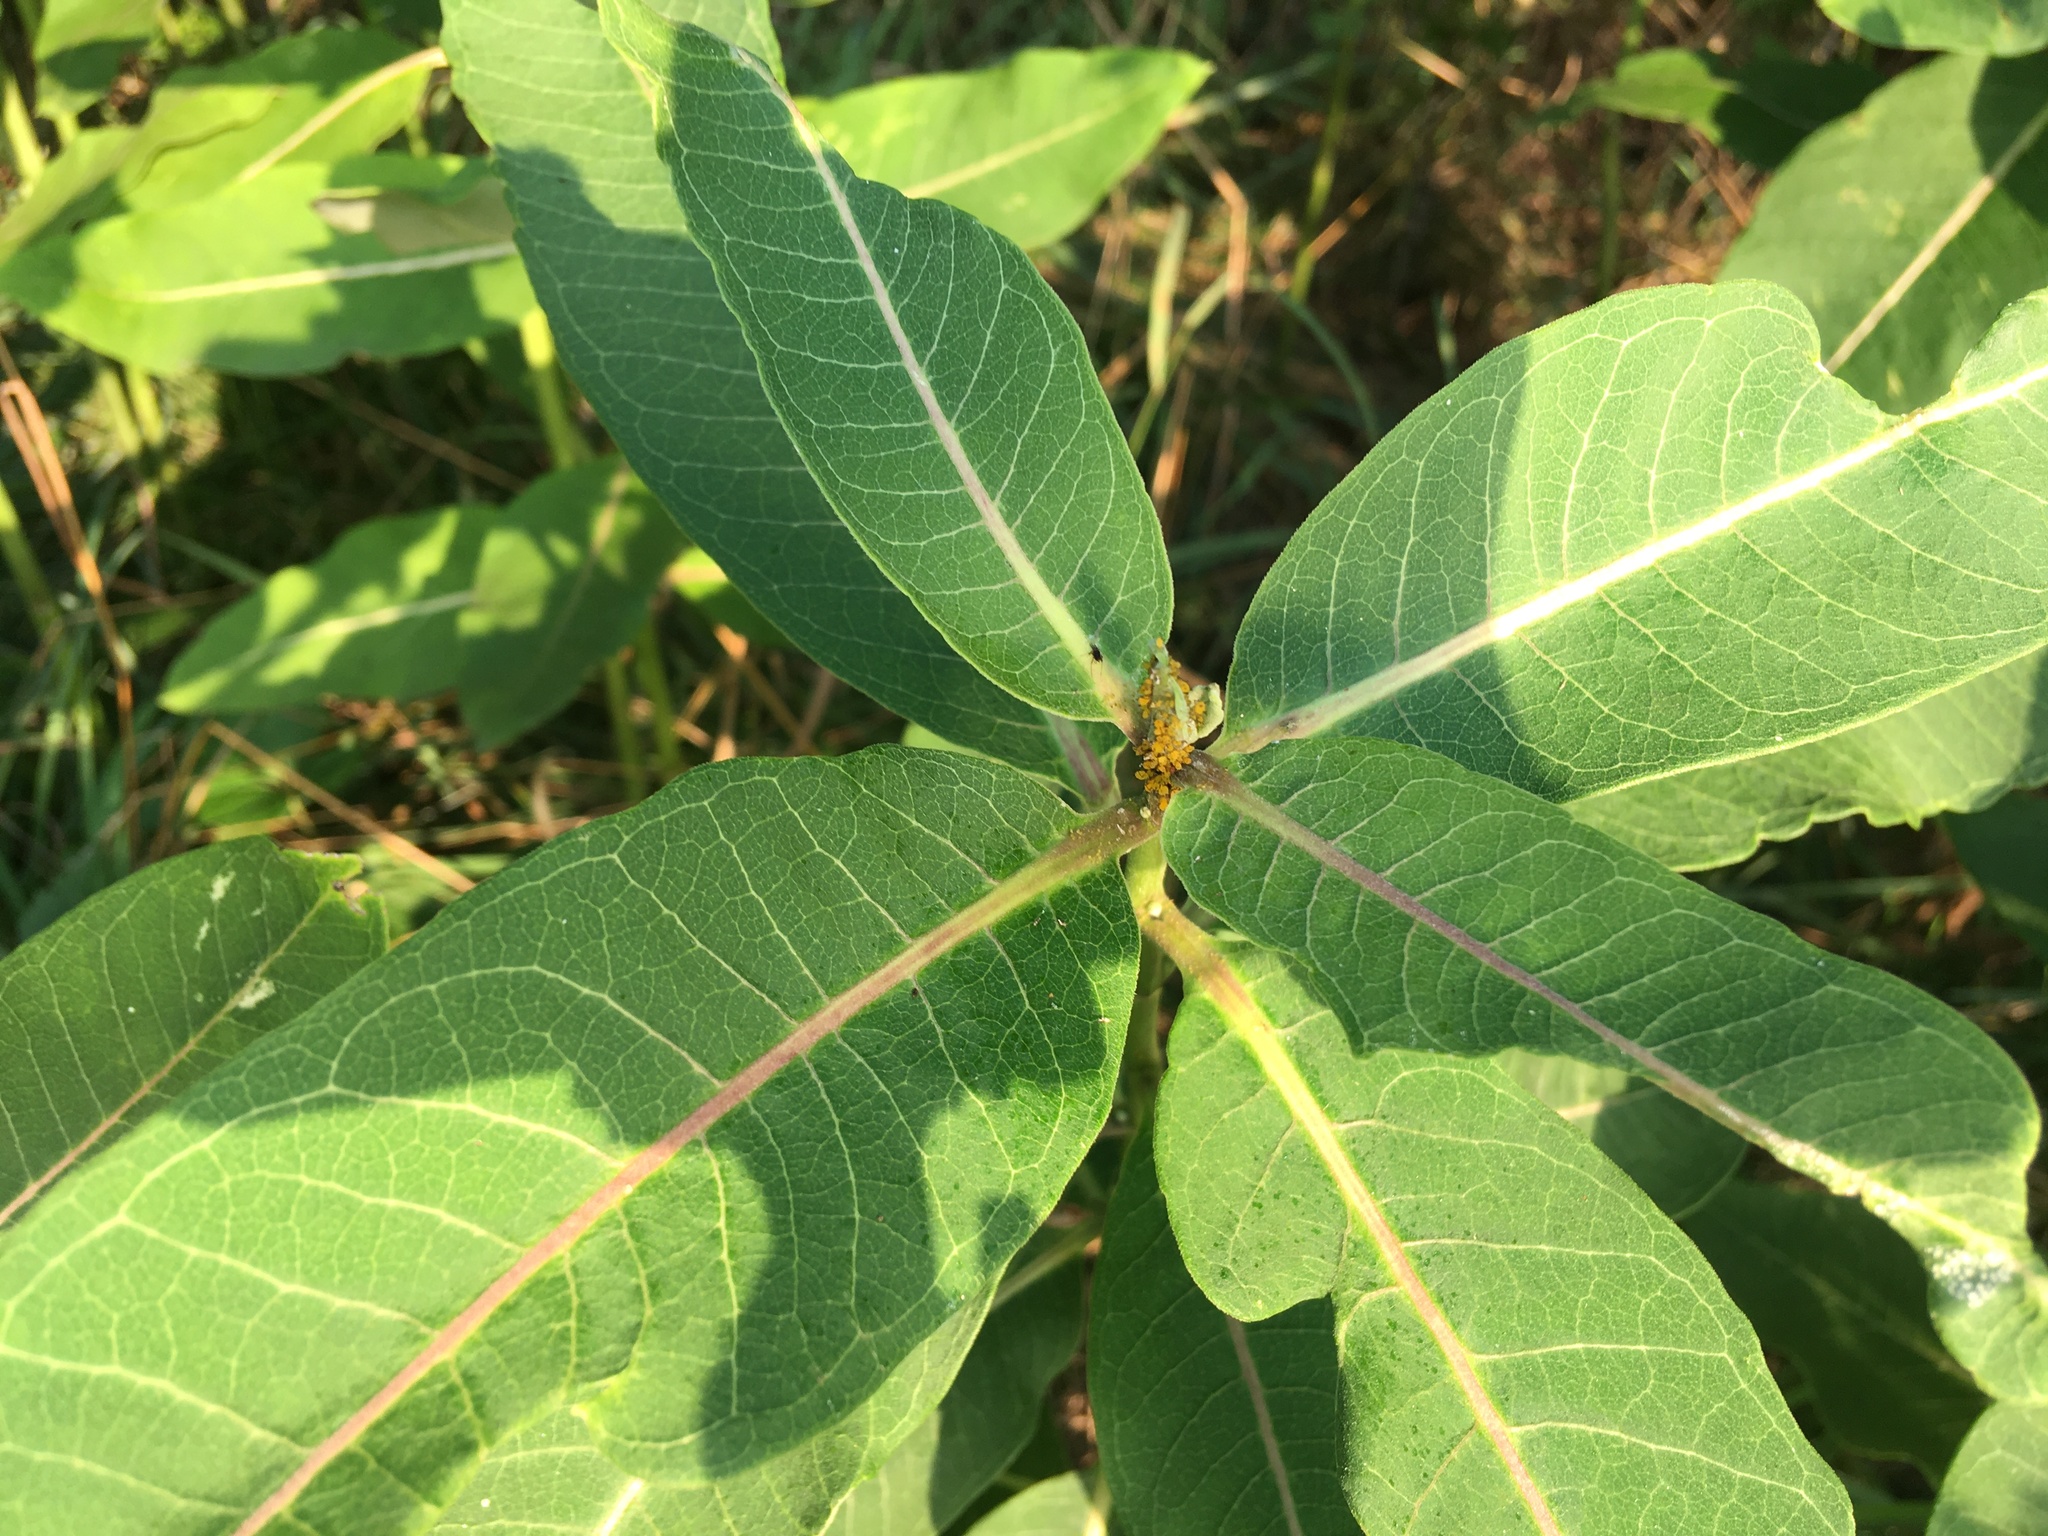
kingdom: Plantae
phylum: Tracheophyta
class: Magnoliopsida
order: Gentianales
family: Apocynaceae
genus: Asclepias
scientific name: Asclepias syriaca
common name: Common milkweed
